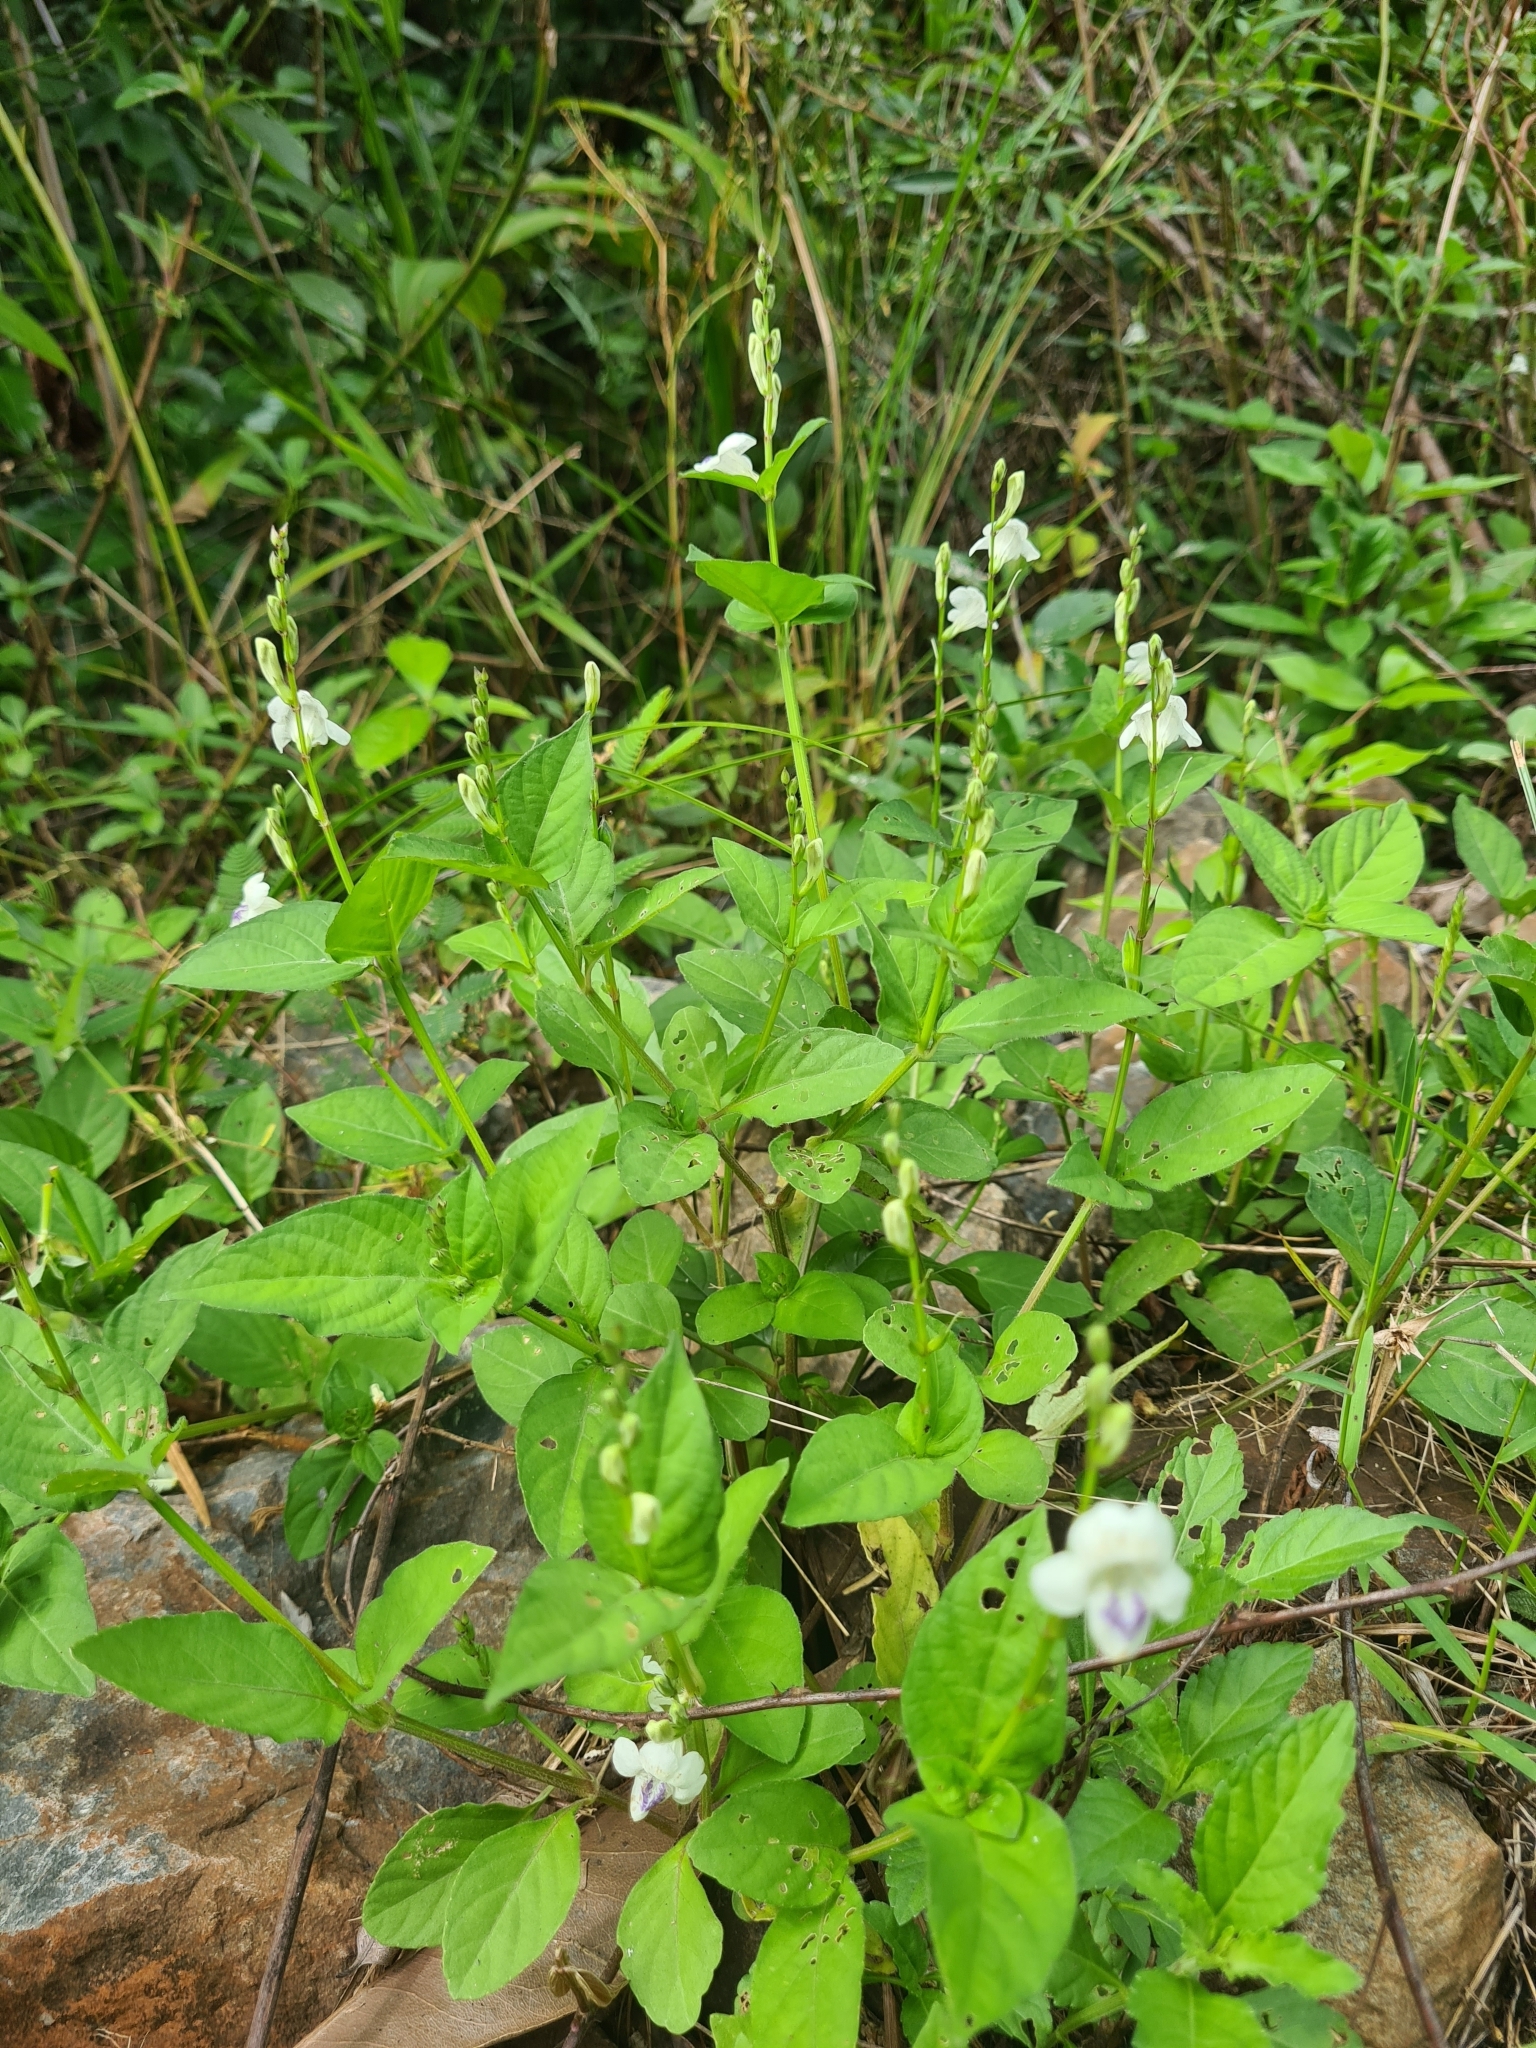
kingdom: Plantae
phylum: Tracheophyta
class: Magnoliopsida
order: Lamiales
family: Acanthaceae
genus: Asystasia
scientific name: Asystasia intrusa
